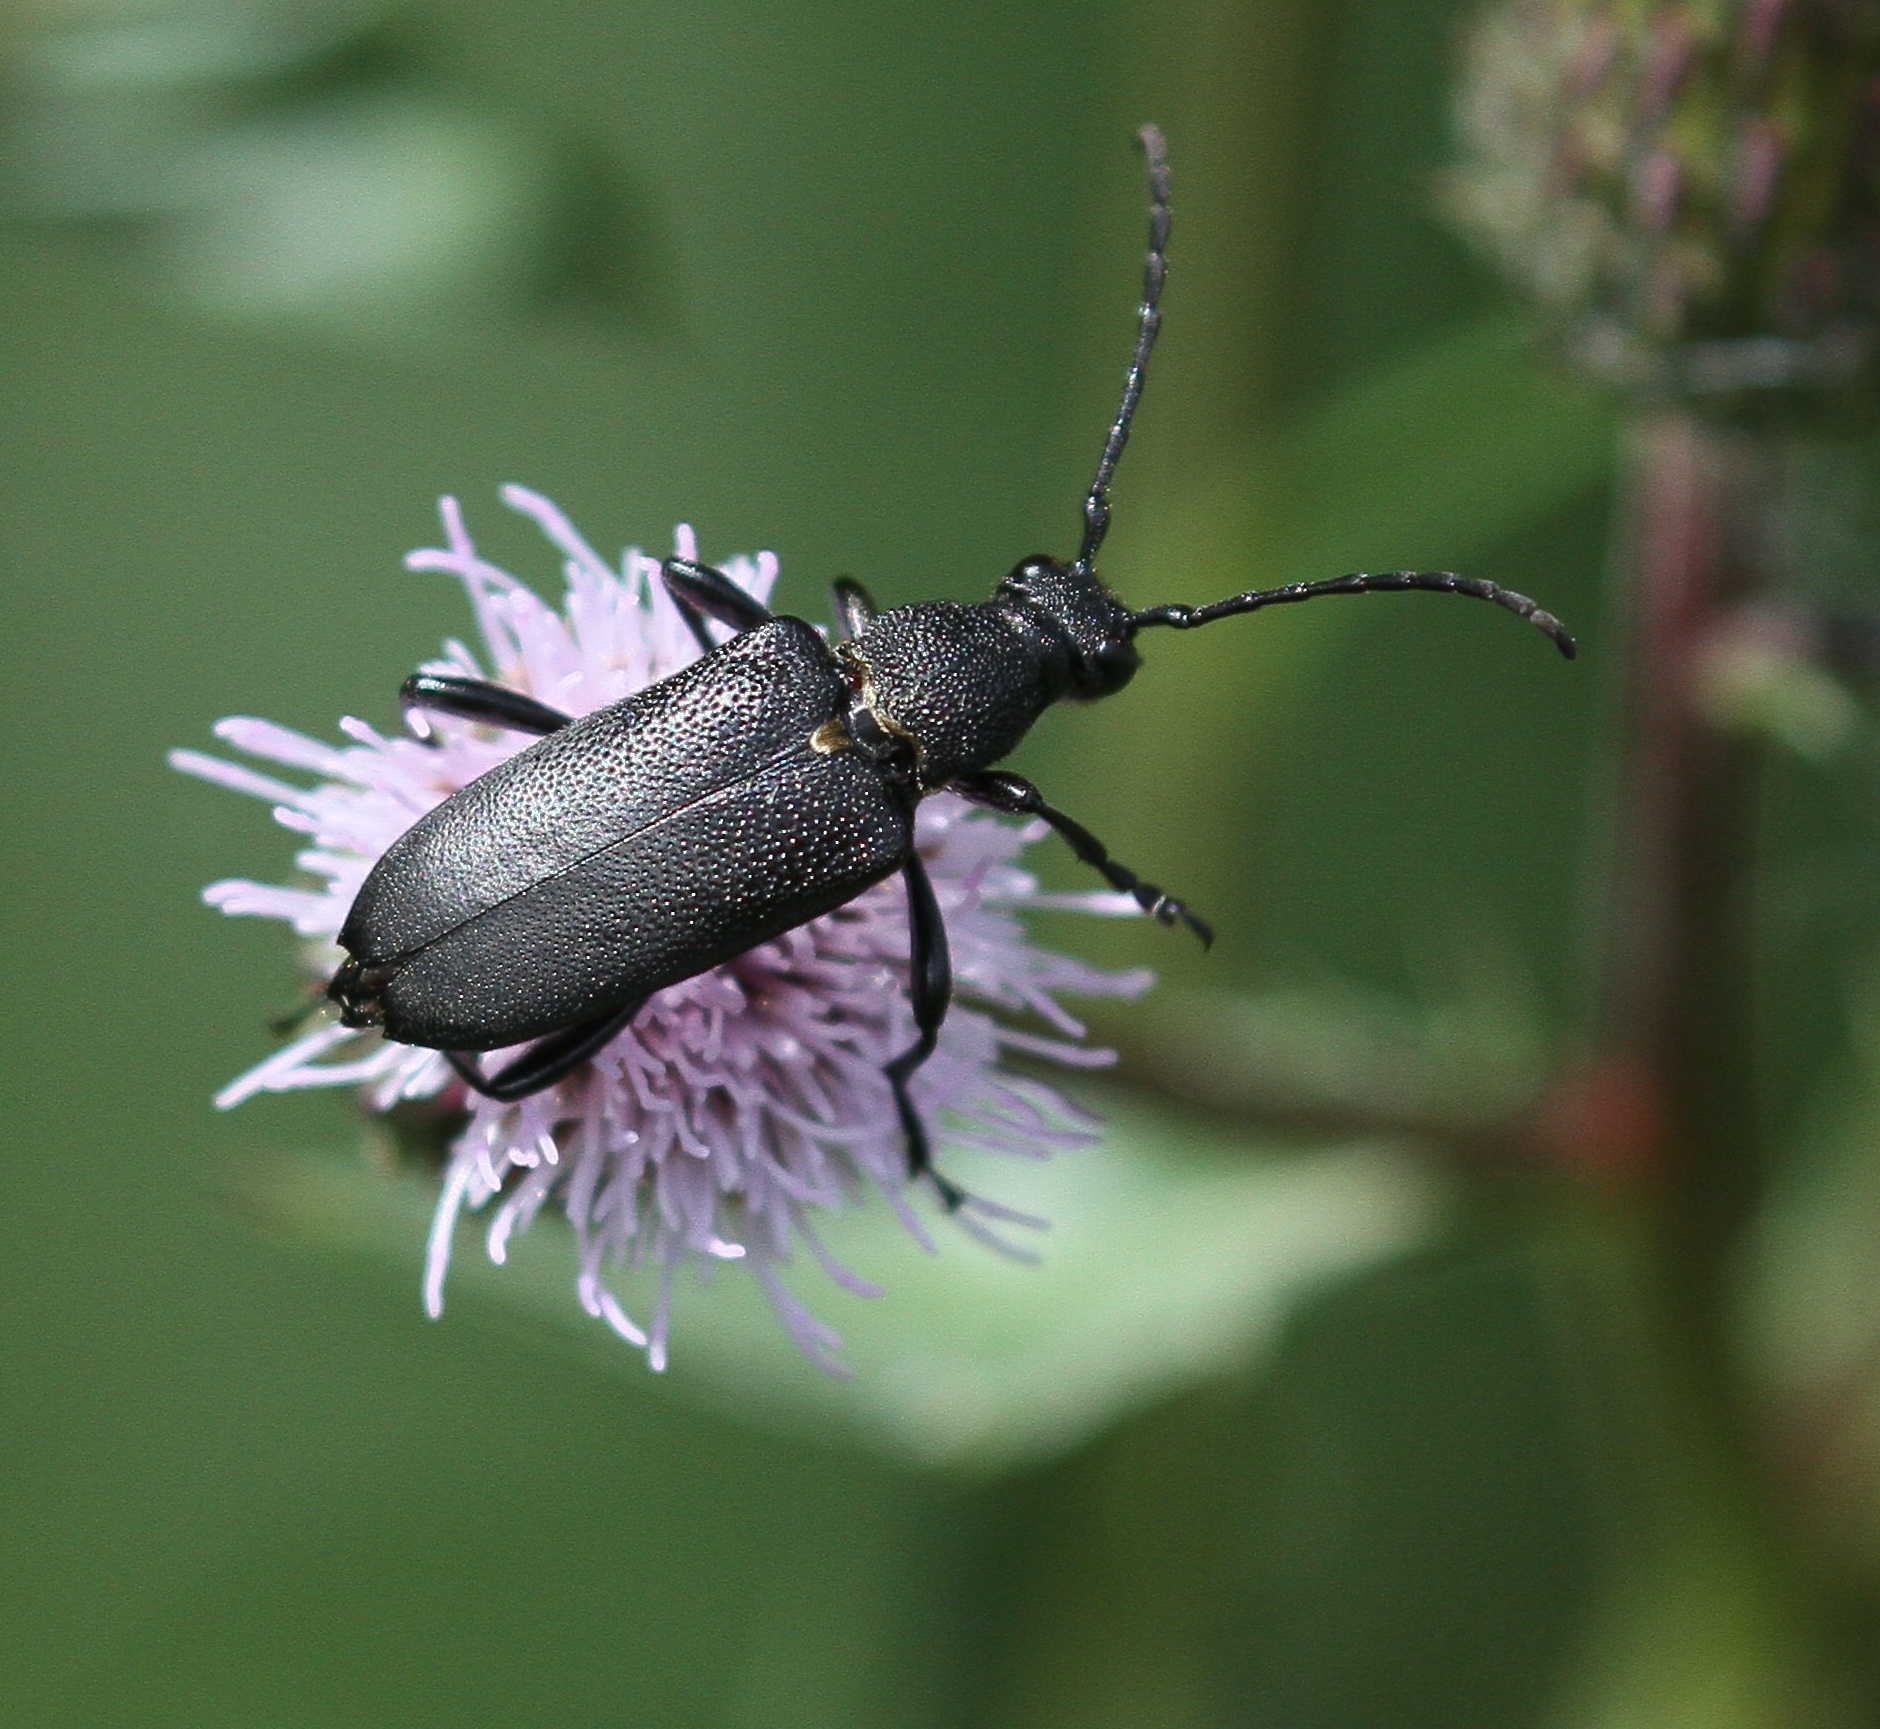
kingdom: Animalia
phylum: Arthropoda
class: Insecta
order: Coleoptera
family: Cerambycidae
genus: Stictoleptura
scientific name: Stictoleptura scutellata
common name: Large black longhorn beetle
